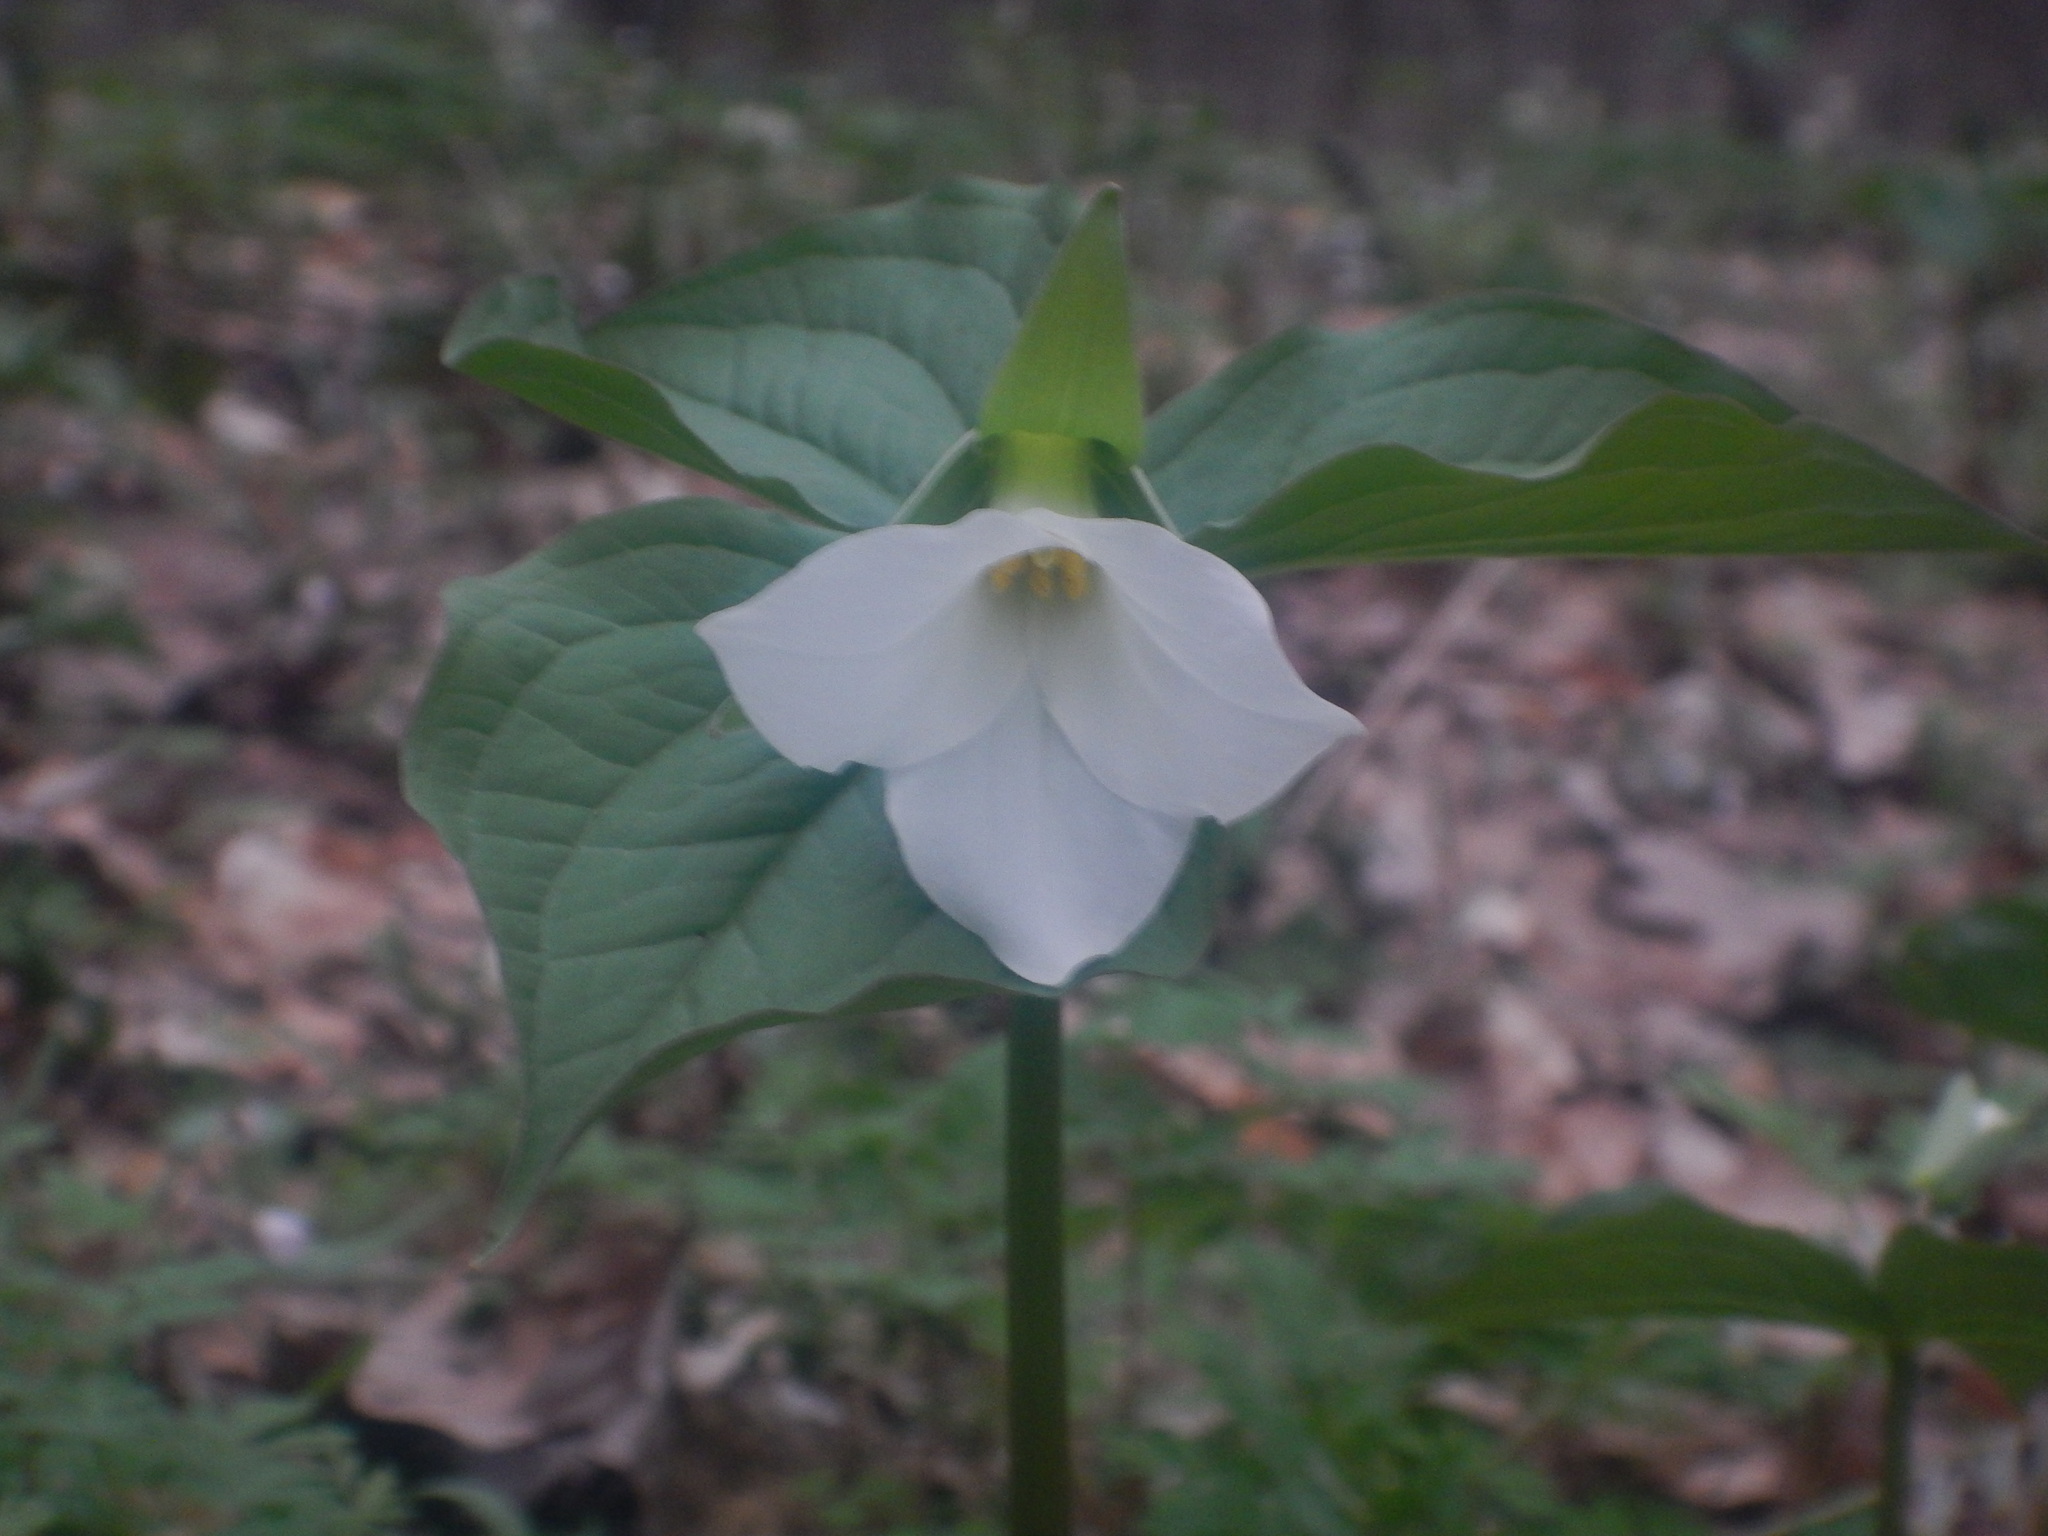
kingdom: Plantae
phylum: Tracheophyta
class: Liliopsida
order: Liliales
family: Melanthiaceae
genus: Trillium
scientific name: Trillium grandiflorum
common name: Great white trillium
